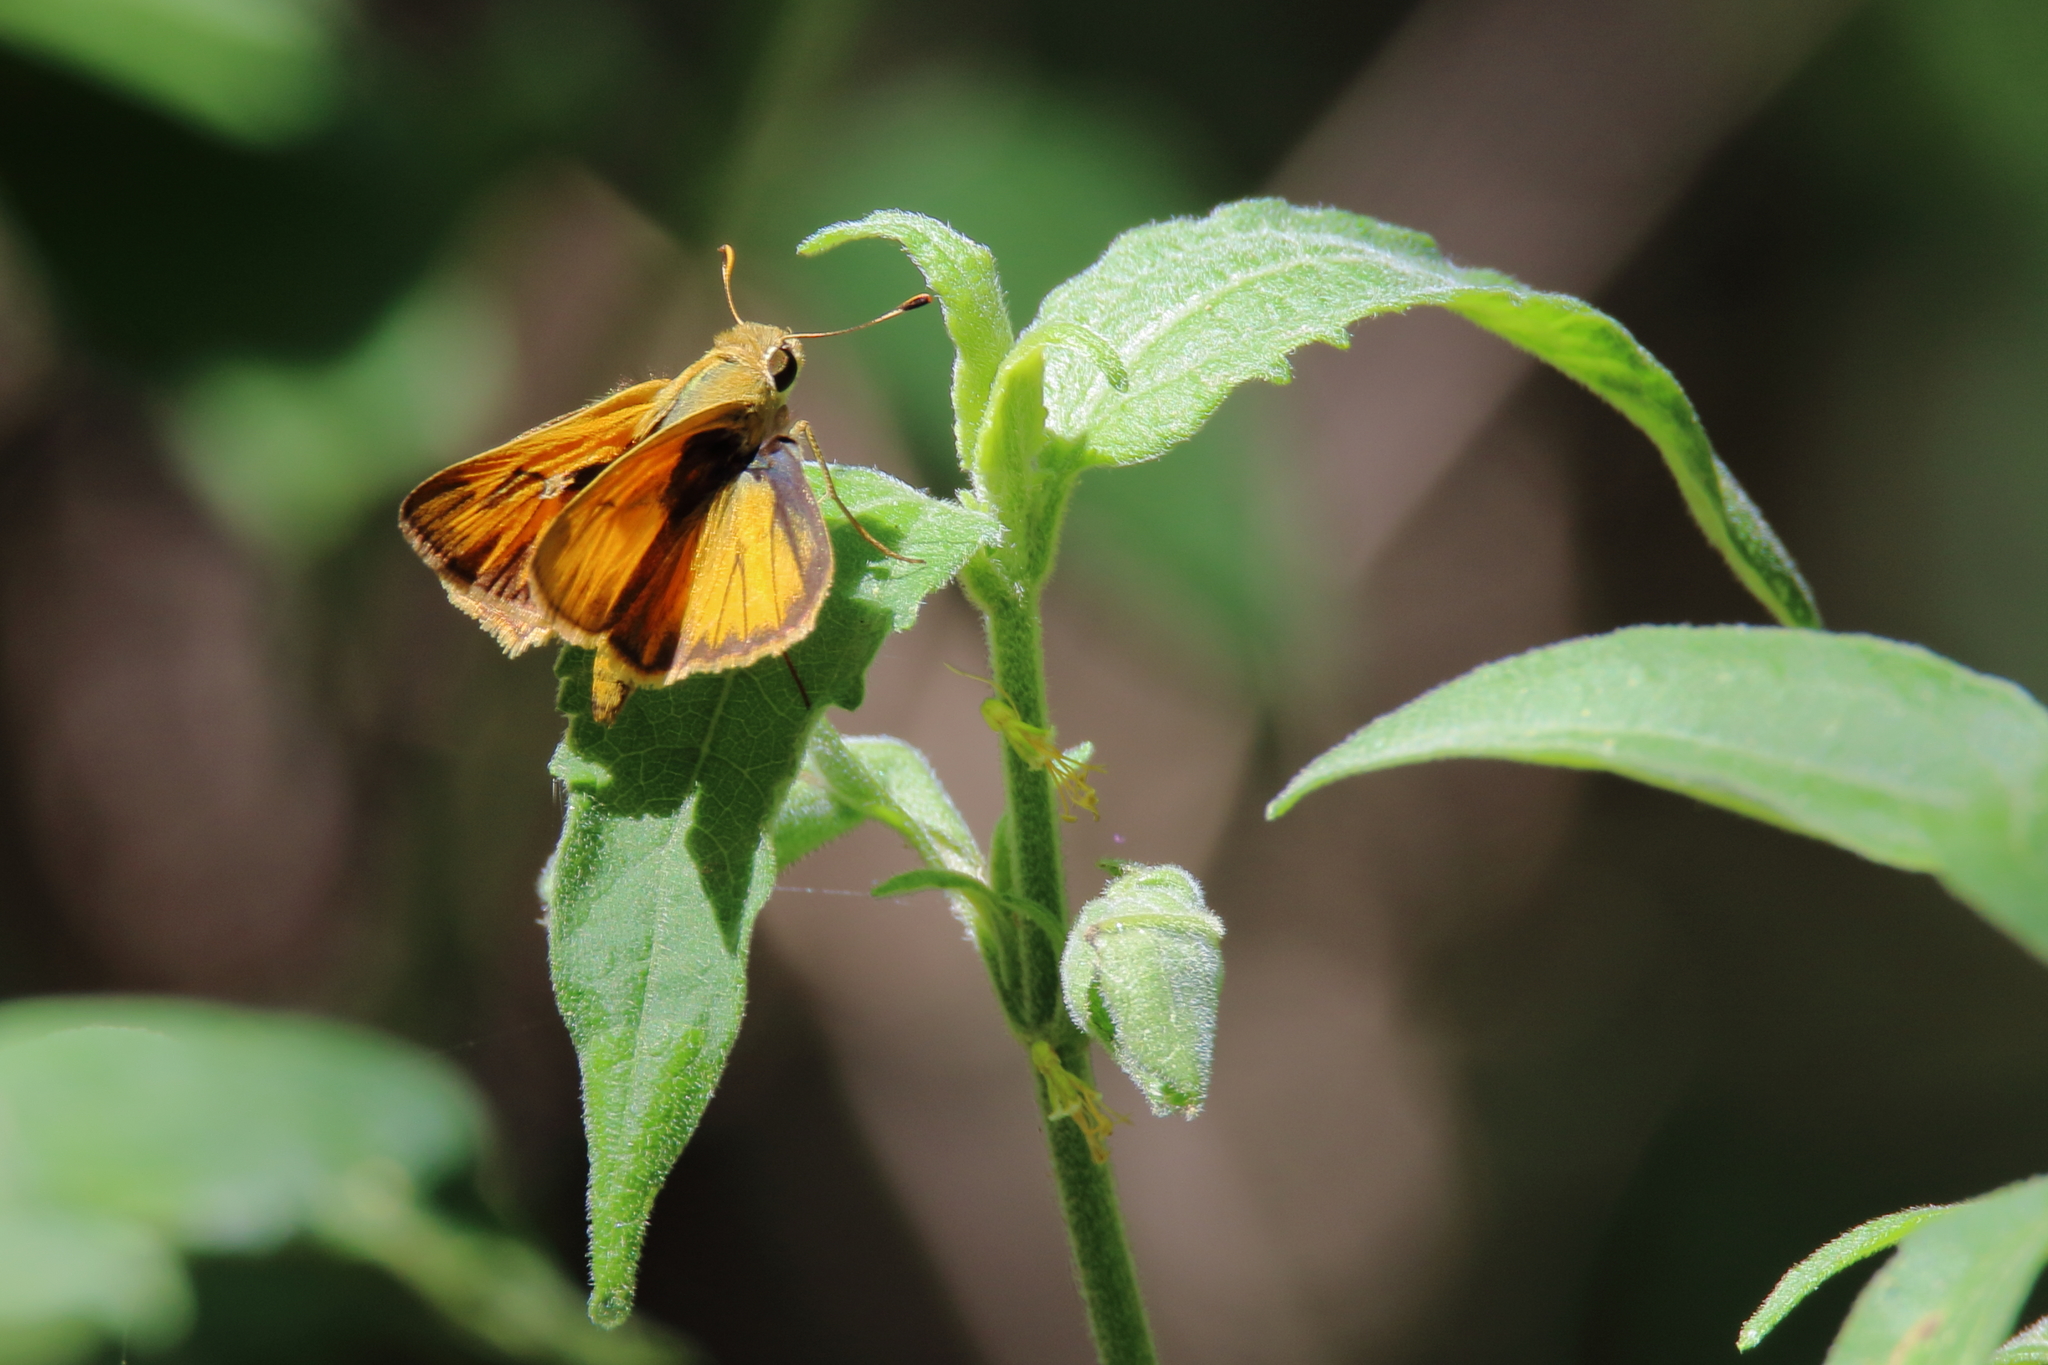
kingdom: Animalia
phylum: Arthropoda
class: Insecta
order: Lepidoptera
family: Hesperiidae
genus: Polites
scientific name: Polites vibex
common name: Whirlabout
